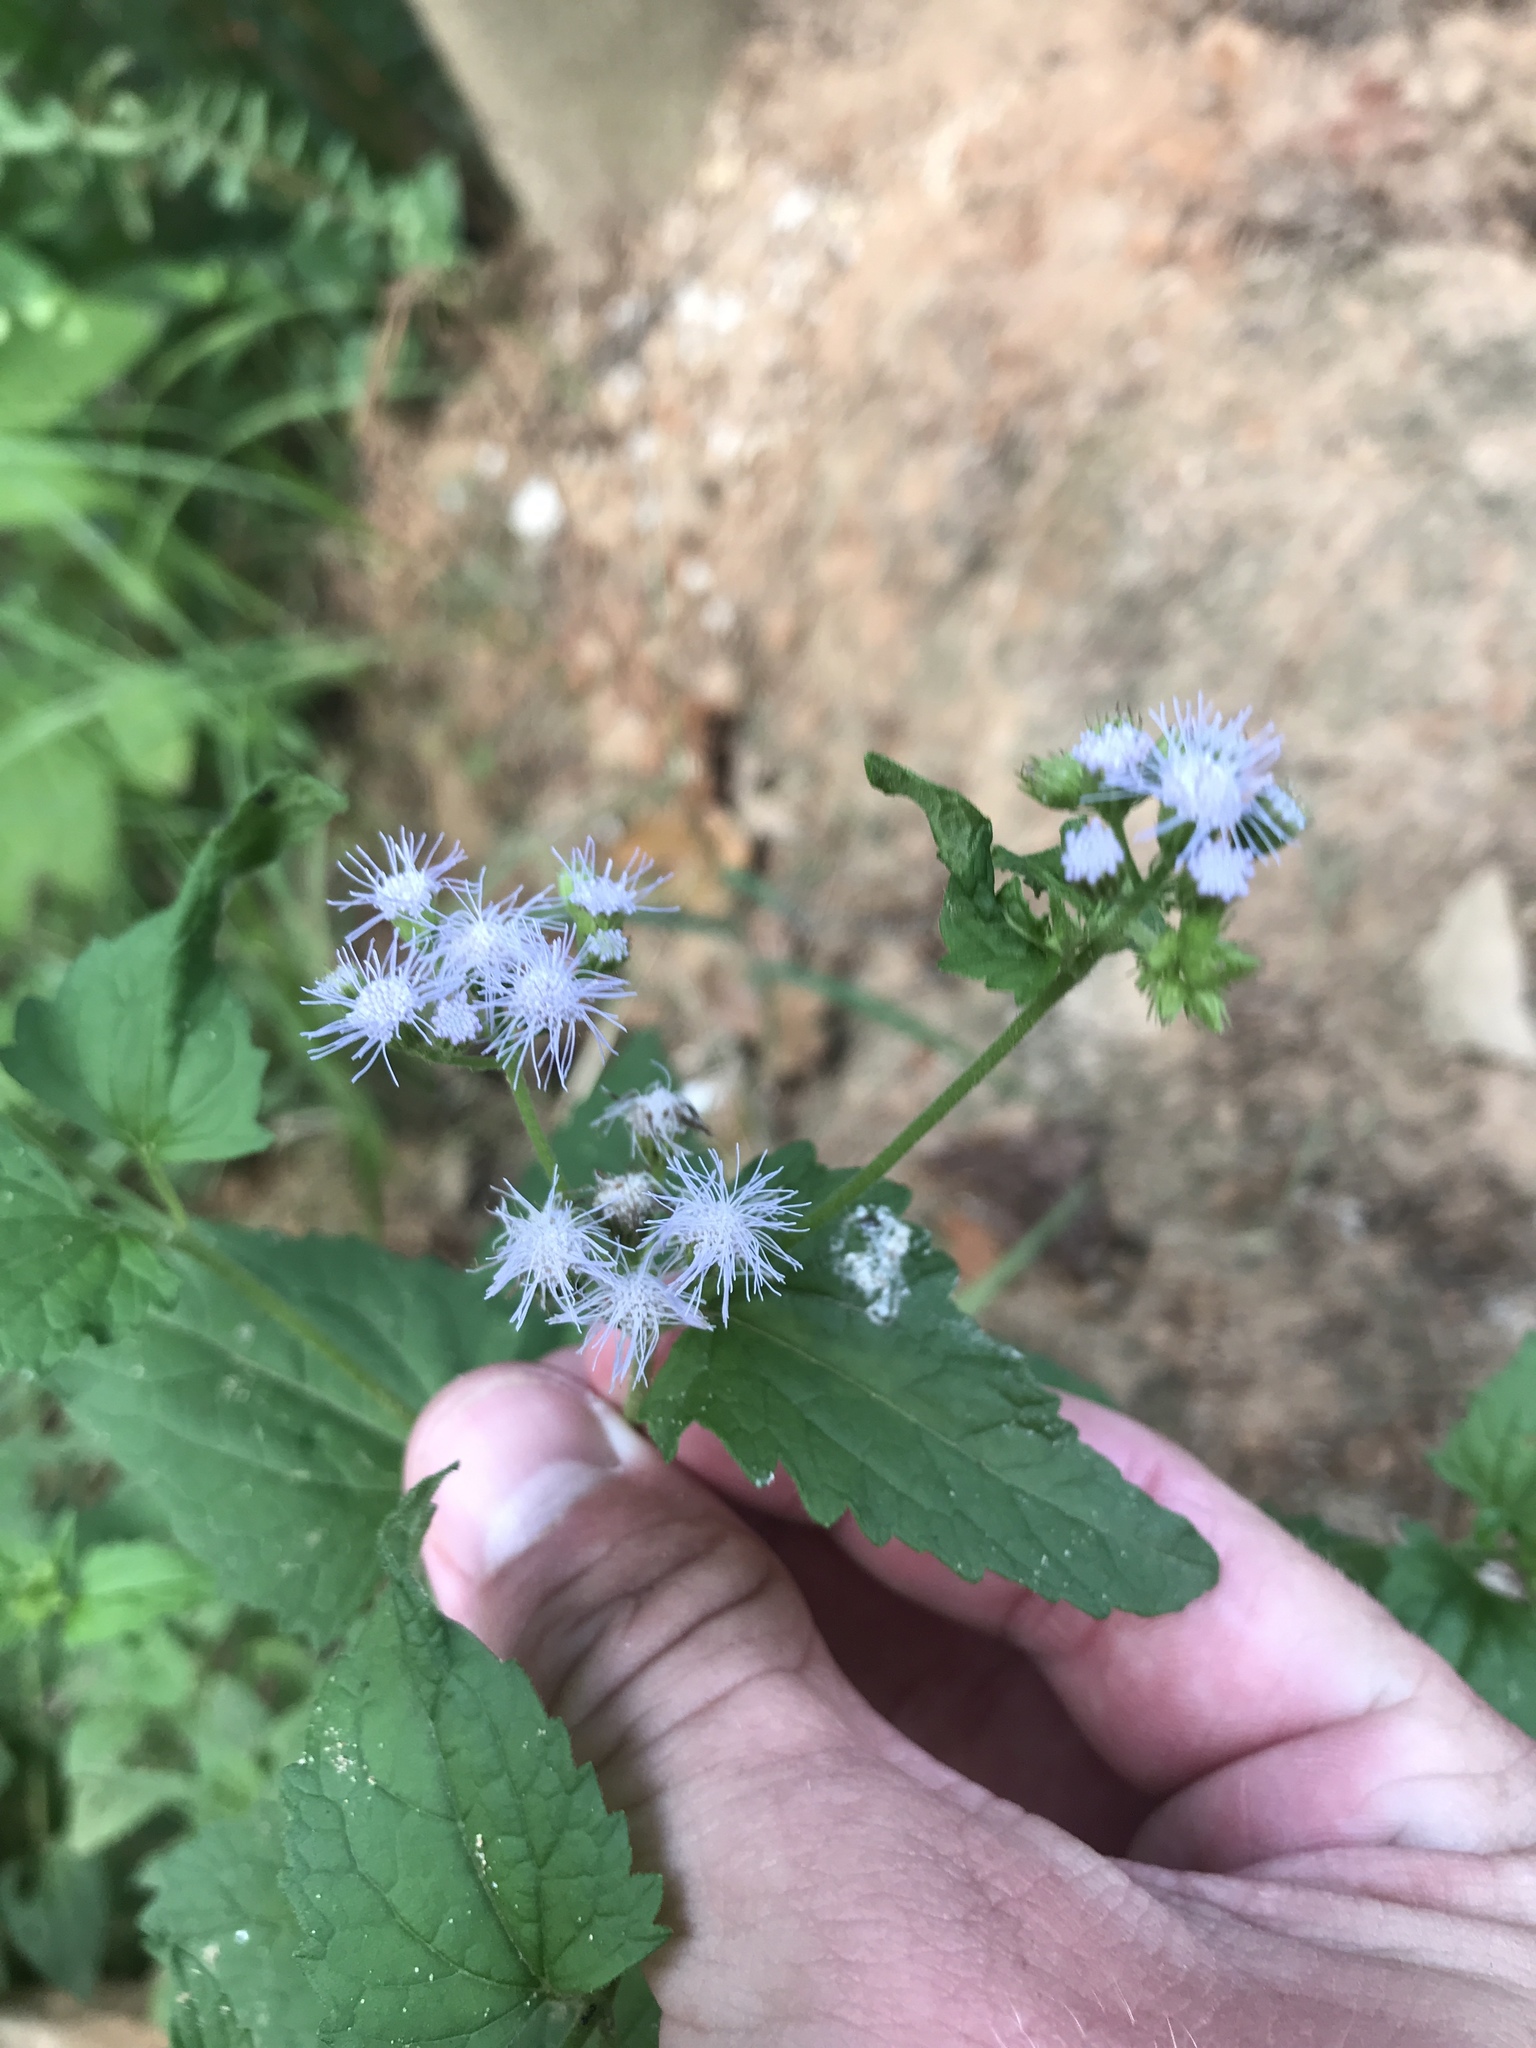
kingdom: Plantae
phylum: Tracheophyta
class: Magnoliopsida
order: Asterales
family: Asteraceae
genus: Conoclinium
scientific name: Conoclinium coelestinum
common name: Blue mistflower
